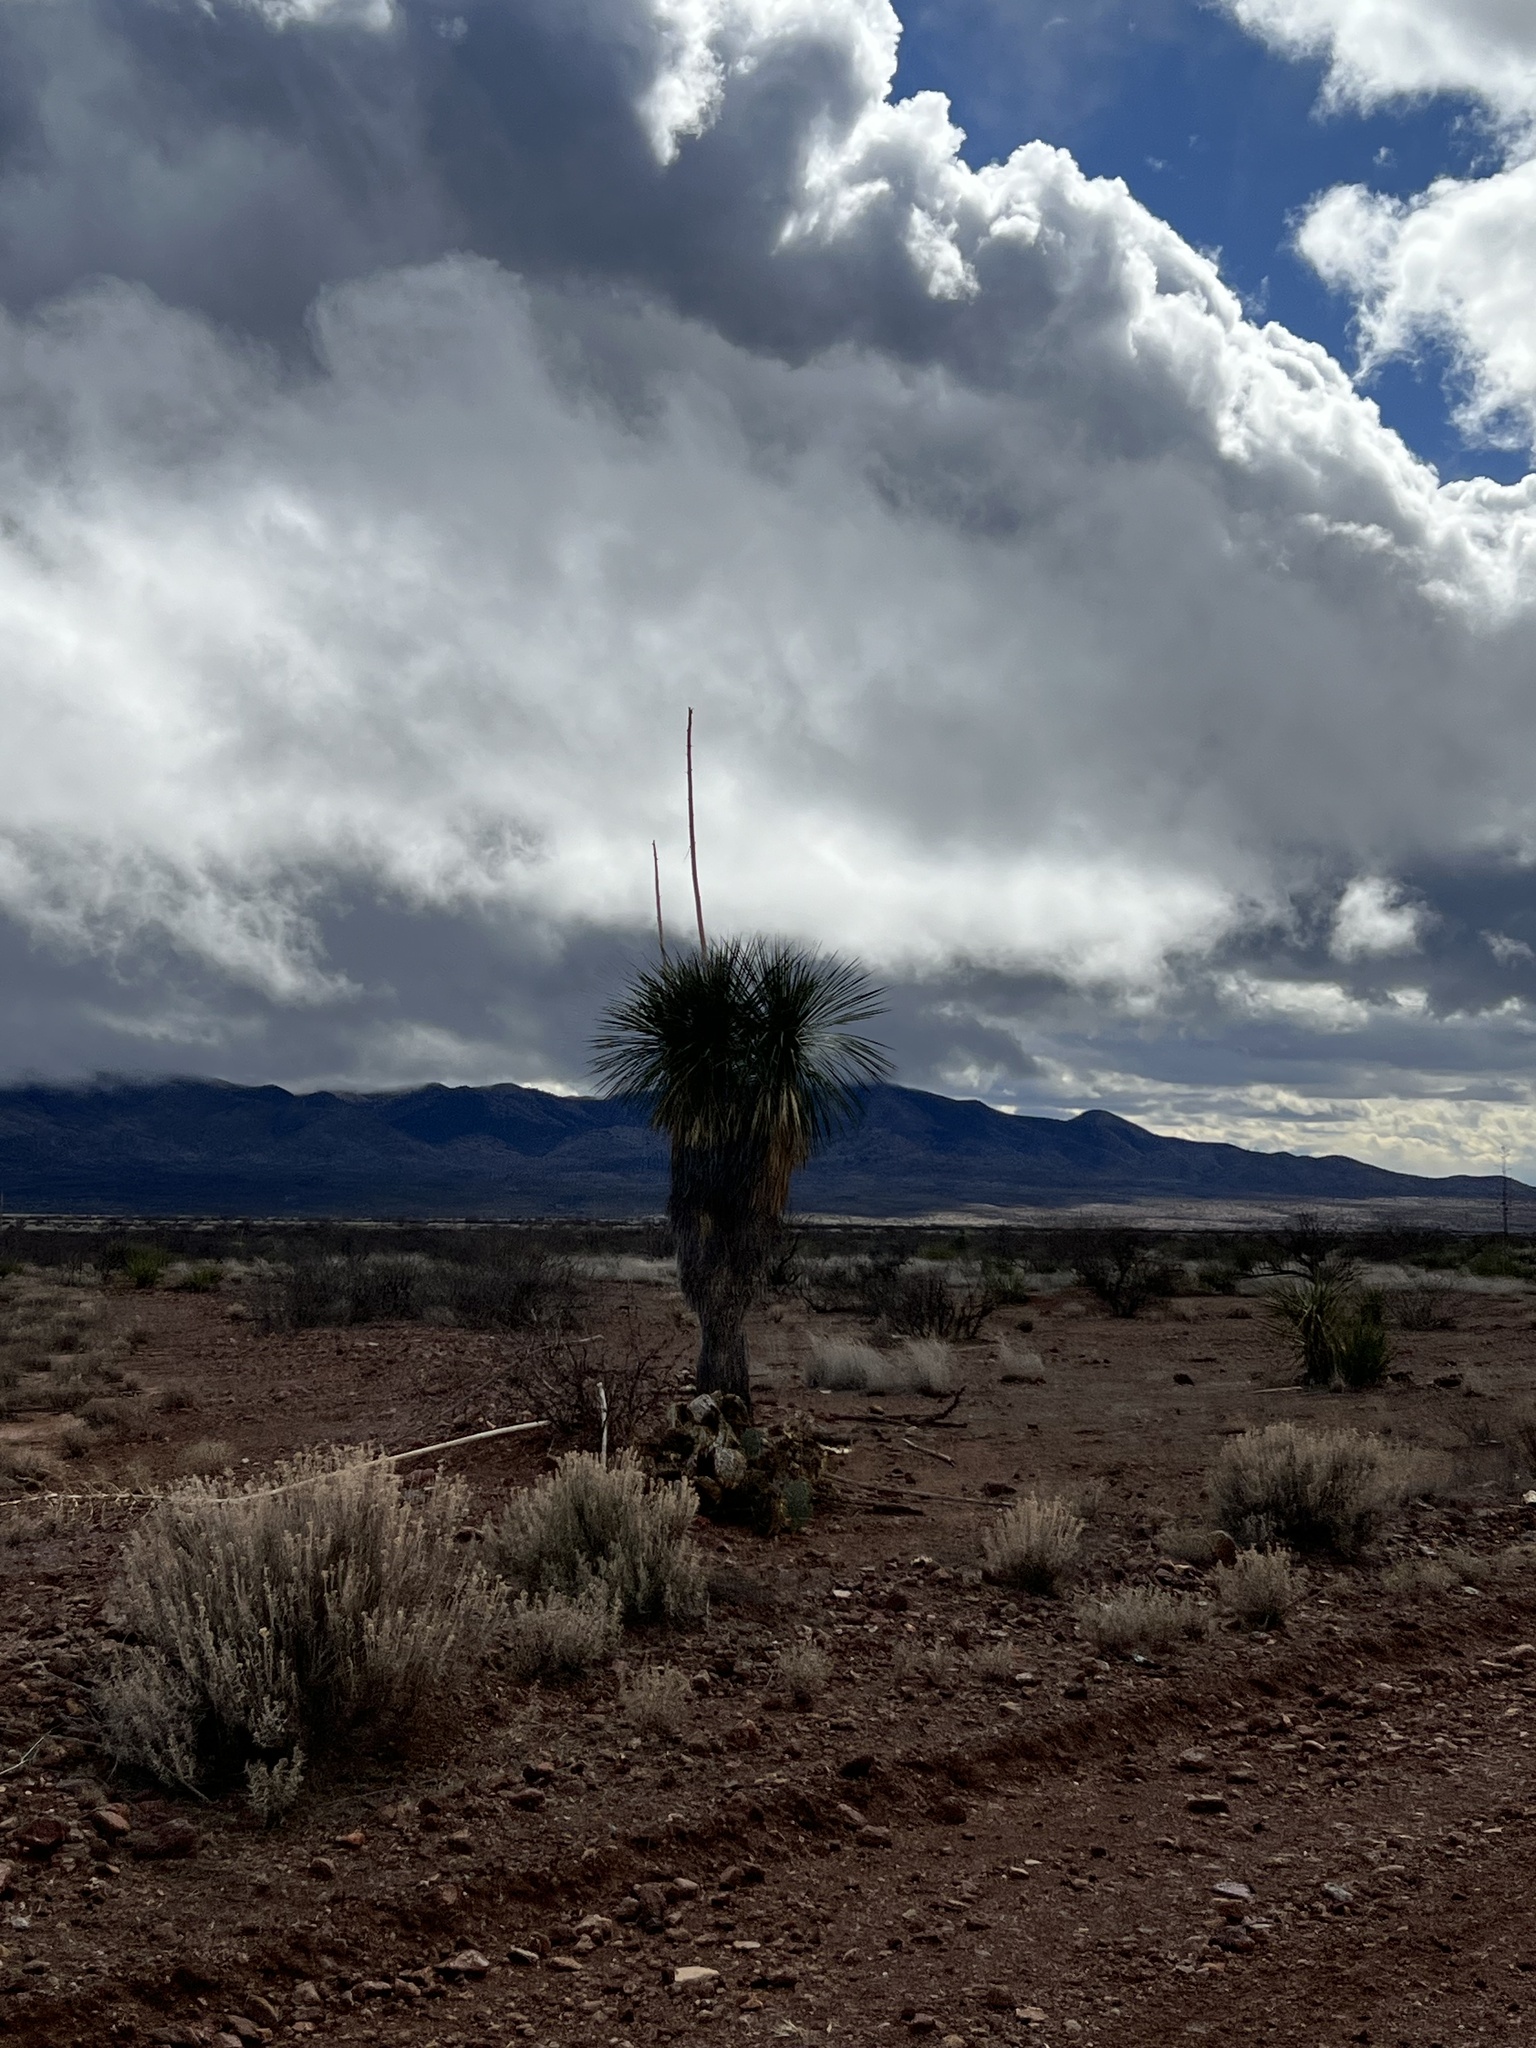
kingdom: Plantae
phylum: Tracheophyta
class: Liliopsida
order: Asparagales
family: Asparagaceae
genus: Yucca
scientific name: Yucca elata
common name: Palmella
